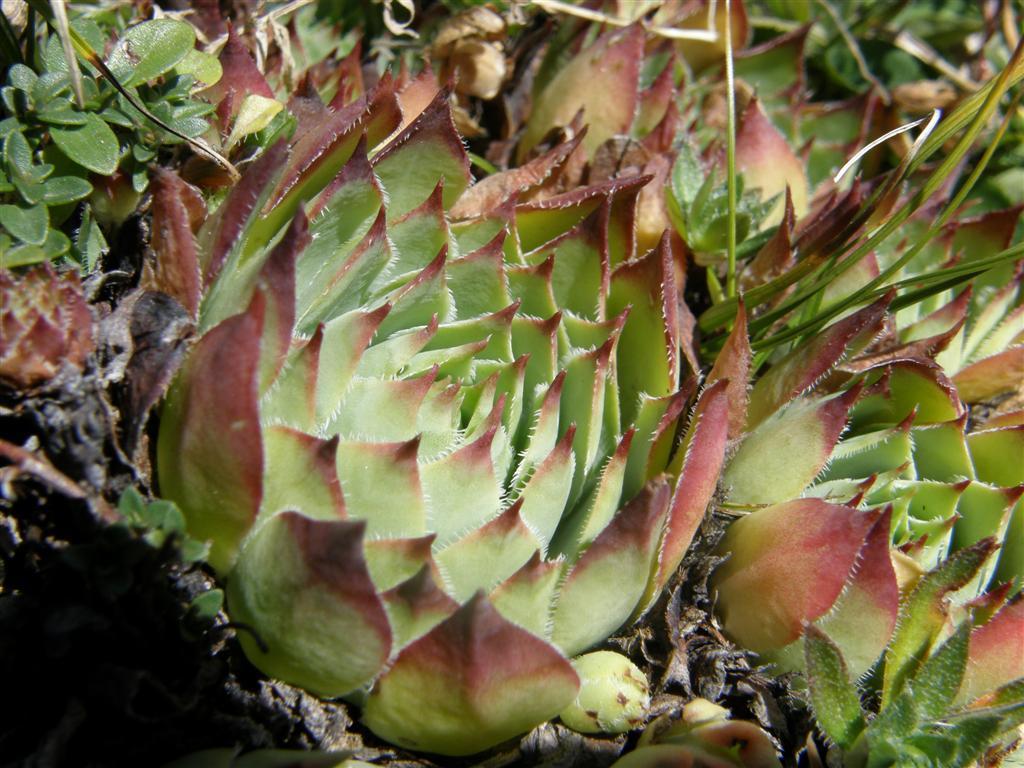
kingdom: Plantae
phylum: Tracheophyta
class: Magnoliopsida
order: Saxifragales
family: Crassulaceae
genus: Sempervivum
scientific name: Sempervivum tectorum
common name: House-leek
